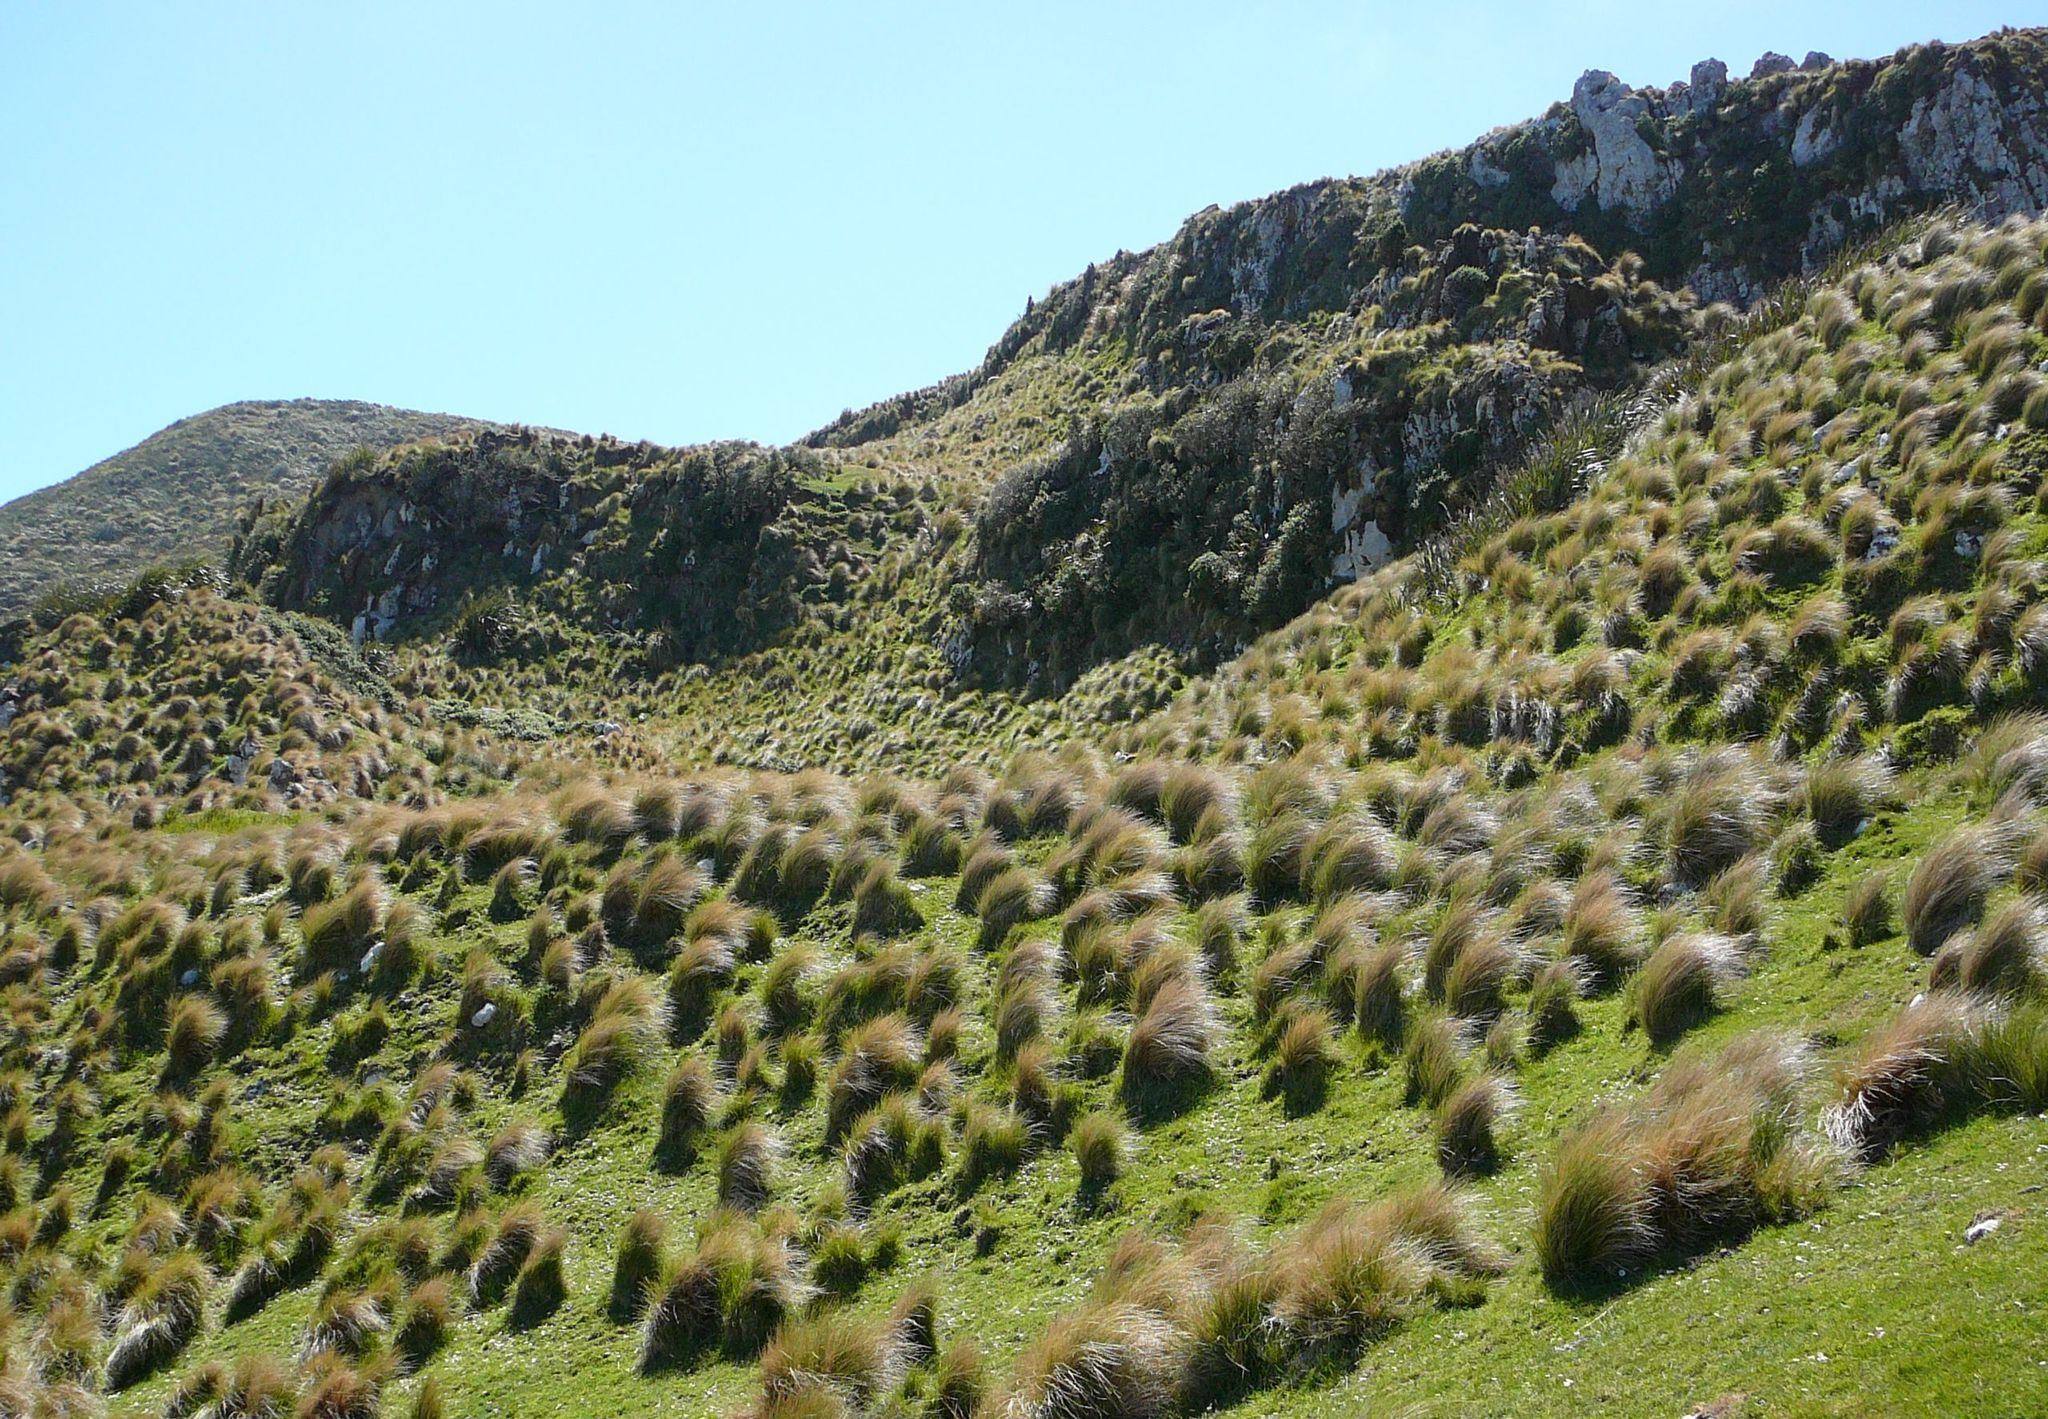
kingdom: Plantae
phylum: Tracheophyta
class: Liliopsida
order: Poales
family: Poaceae
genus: Poa
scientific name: Poa cita
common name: Silver tussock
